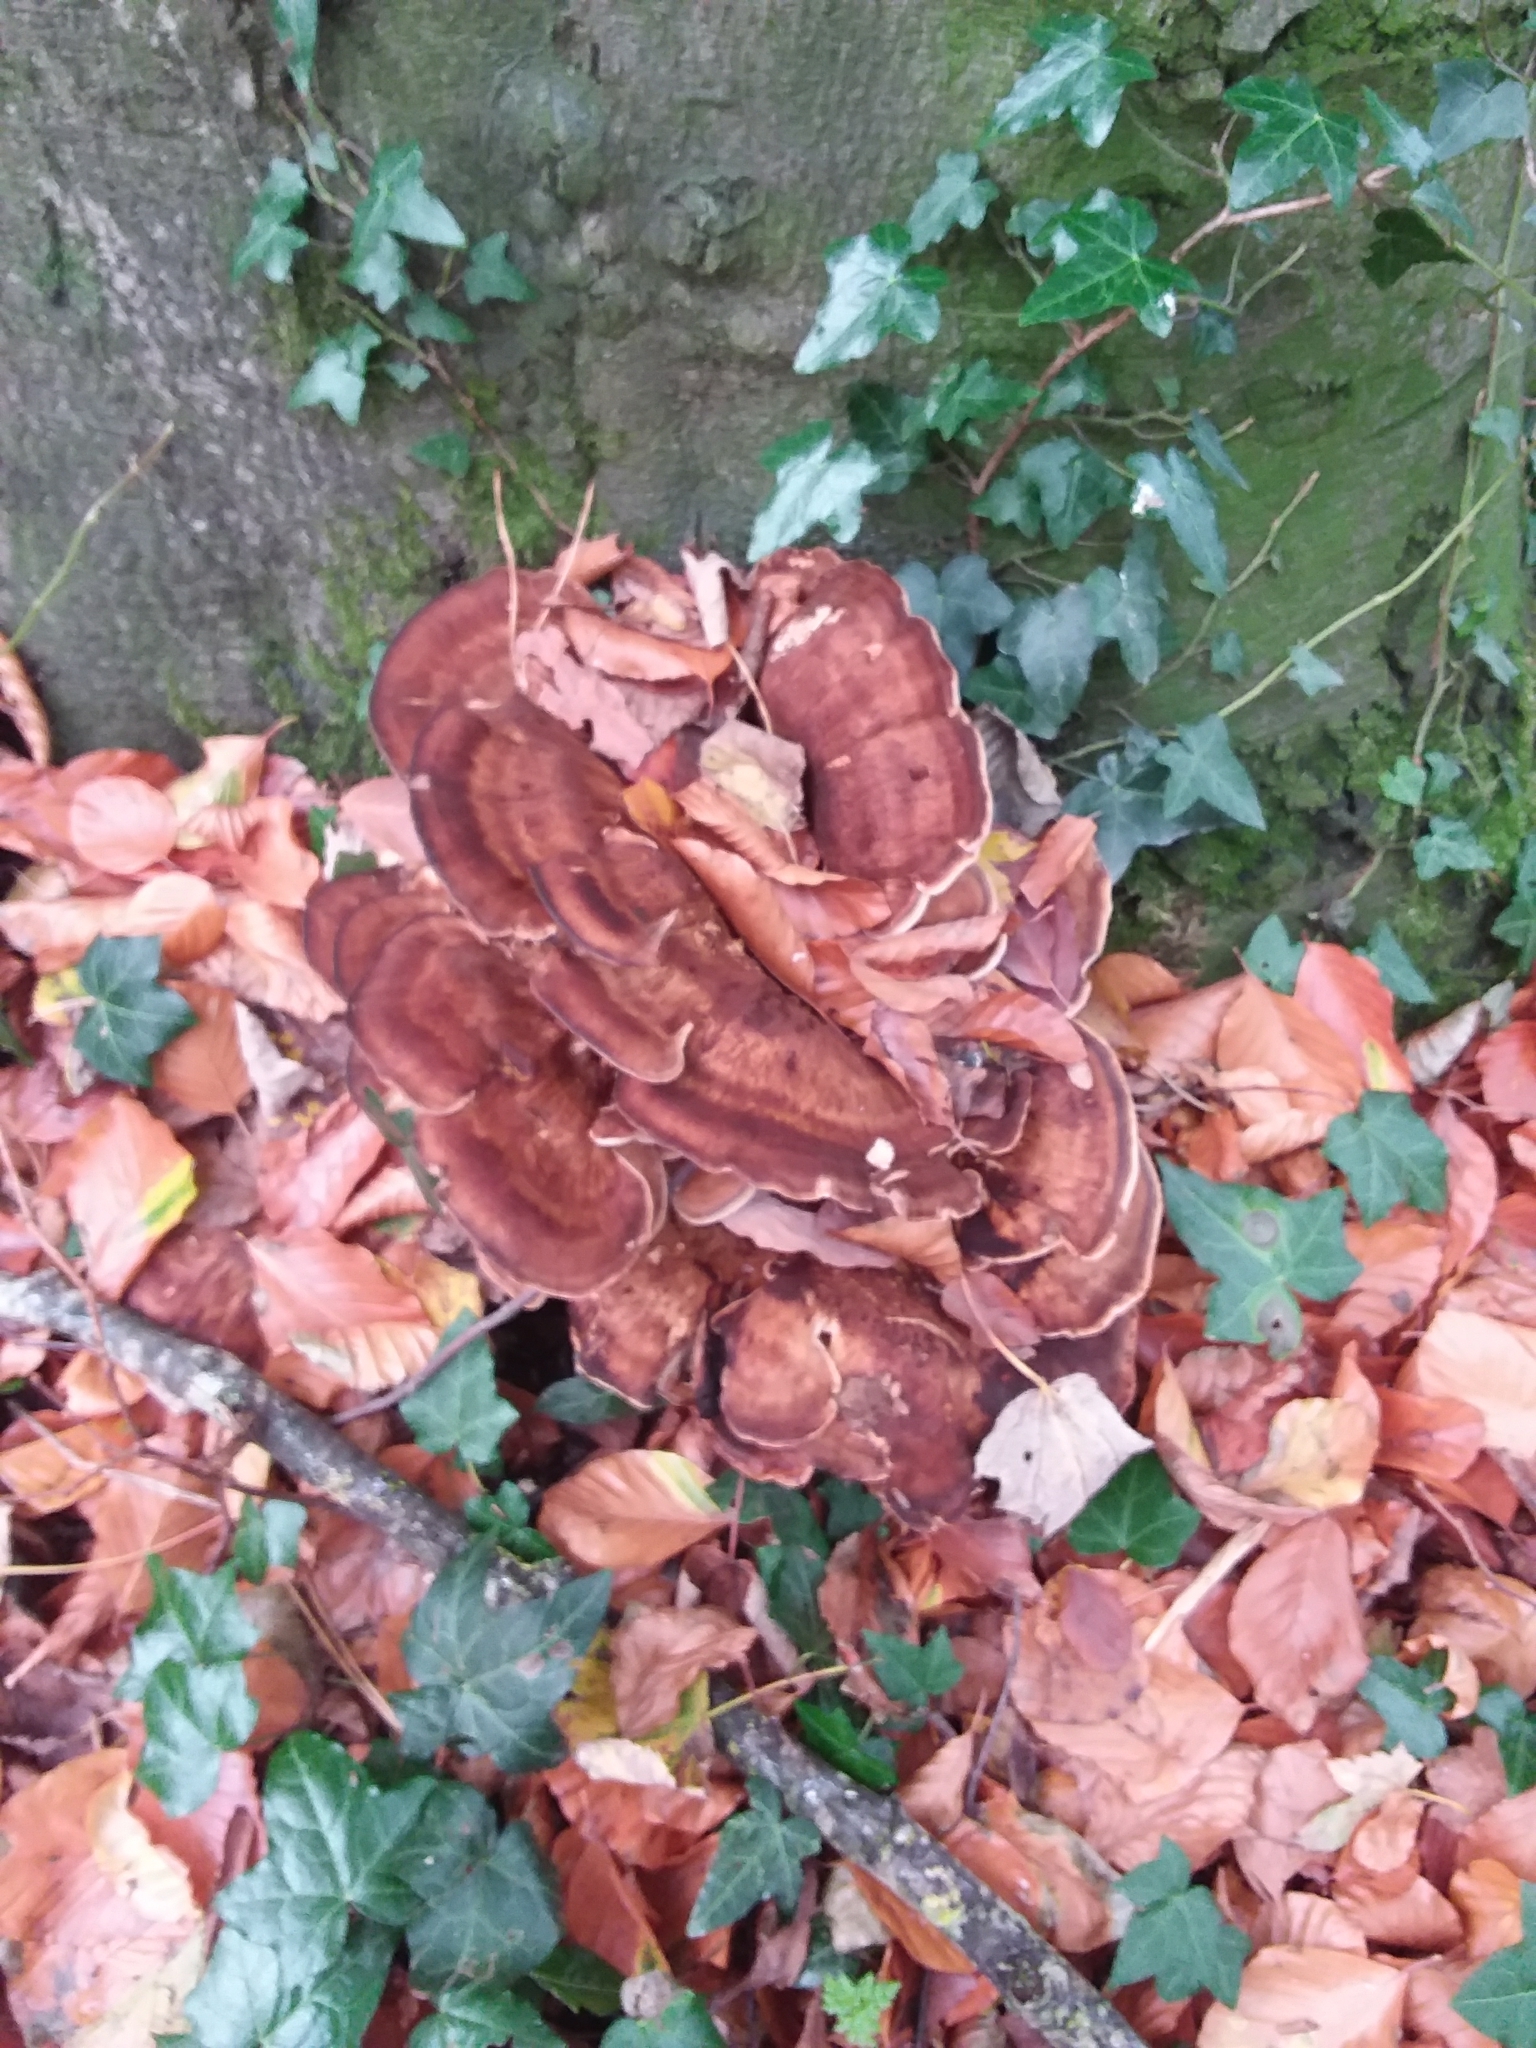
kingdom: Fungi
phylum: Basidiomycota
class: Agaricomycetes
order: Polyporales
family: Meripilaceae
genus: Meripilus
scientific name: Meripilus giganteus
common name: Giant polypore
